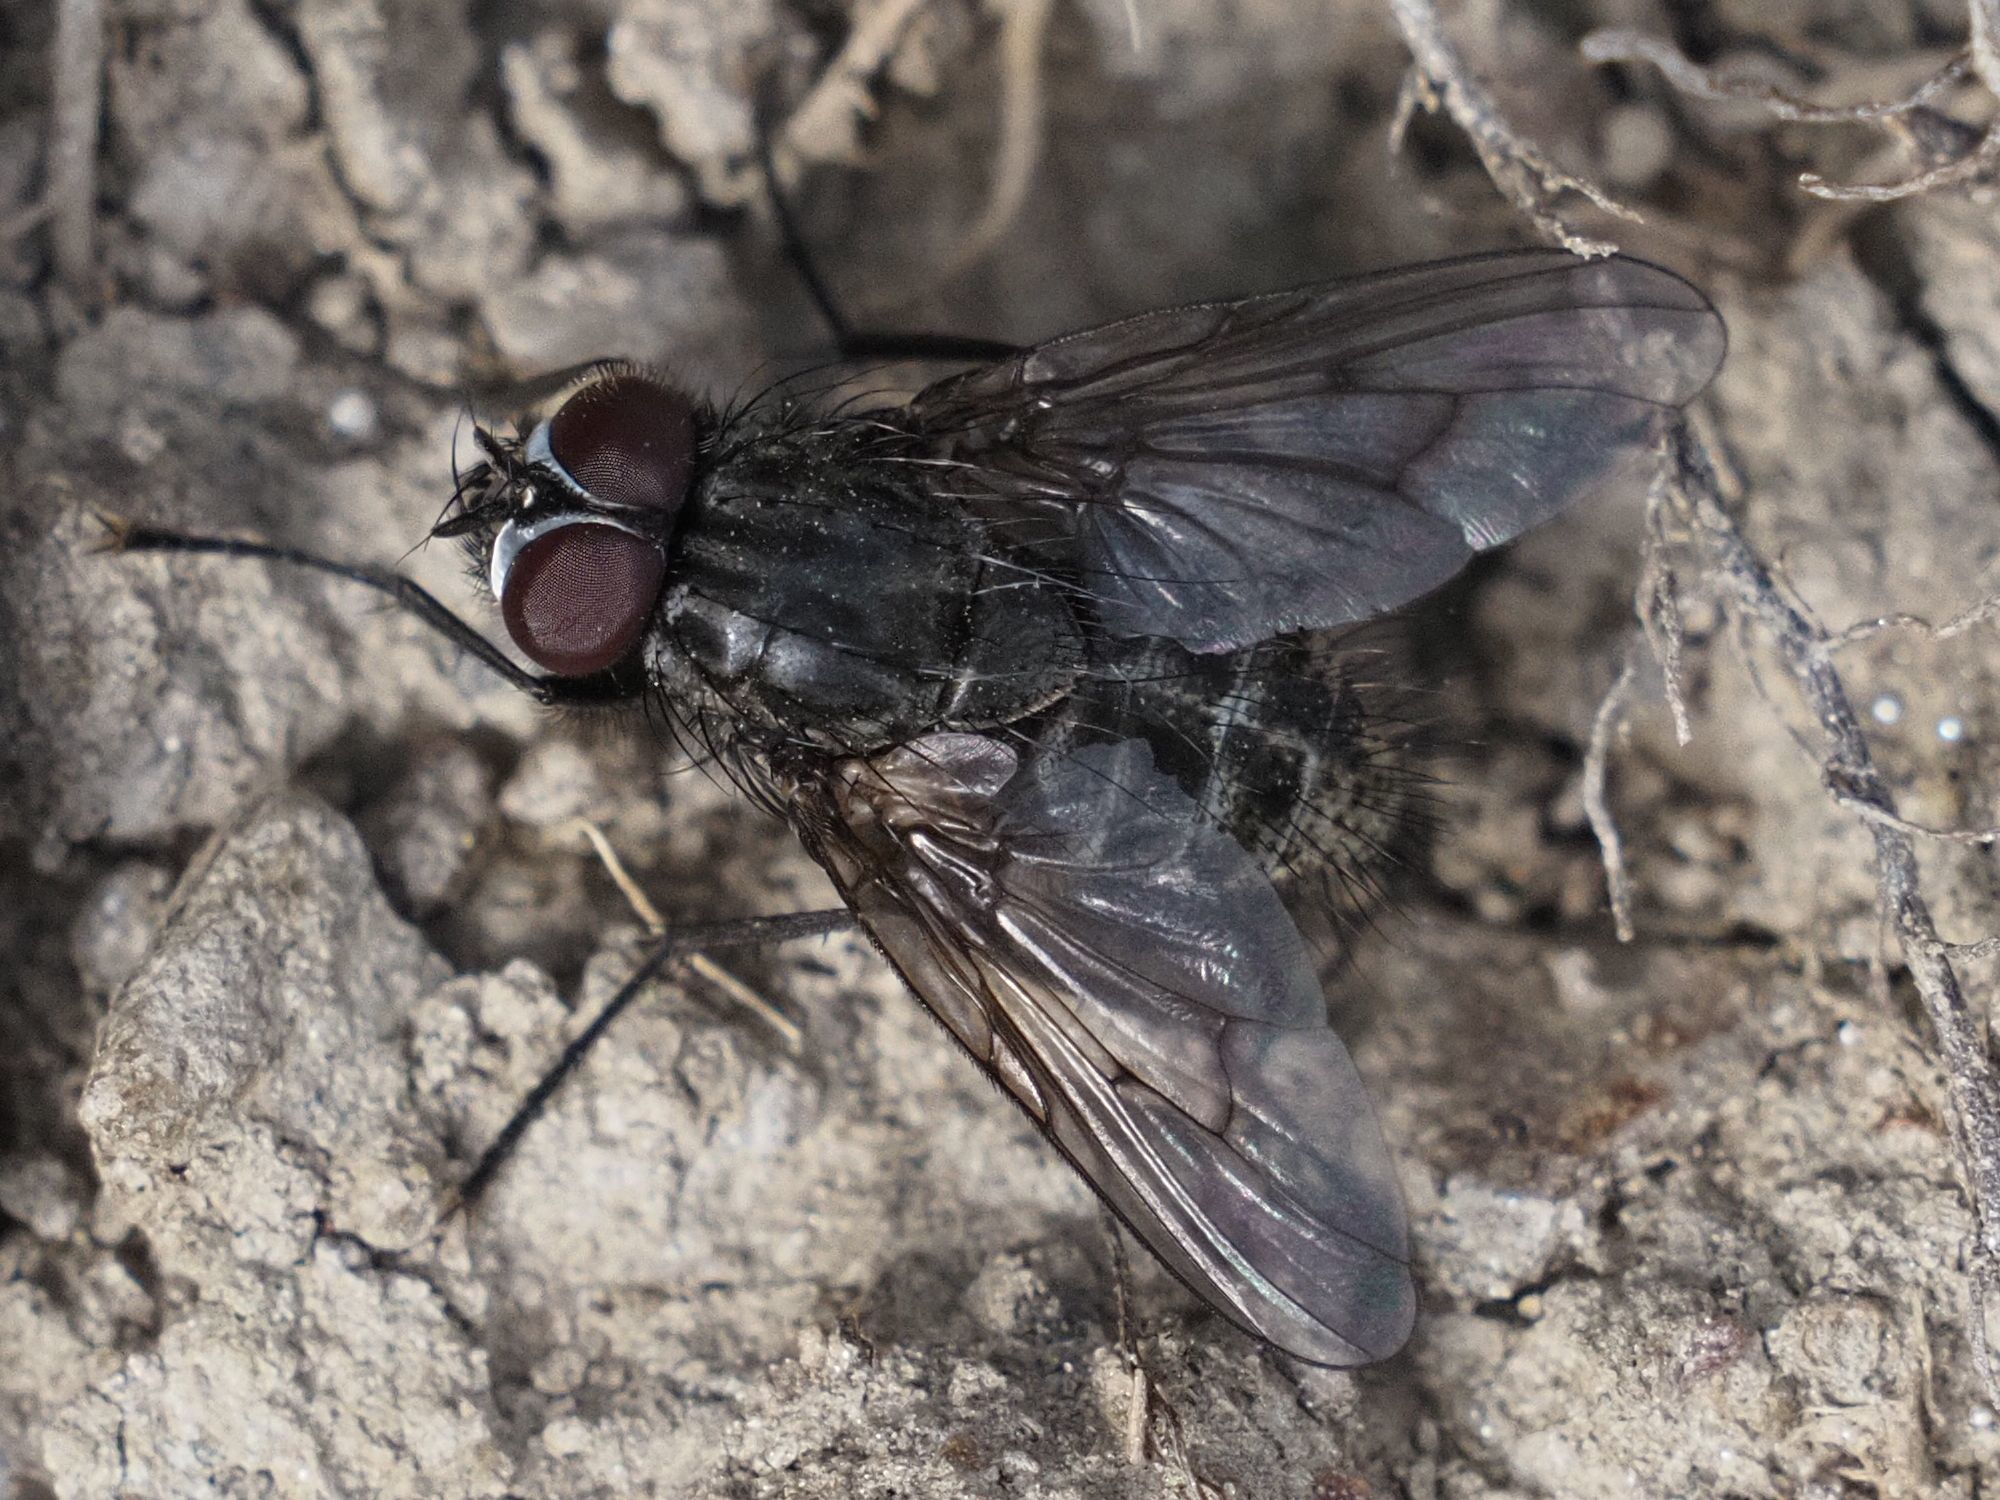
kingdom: Animalia
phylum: Arthropoda
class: Insecta
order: Diptera
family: Muscidae
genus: Helina
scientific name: Helina evecta
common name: Muscid fly
